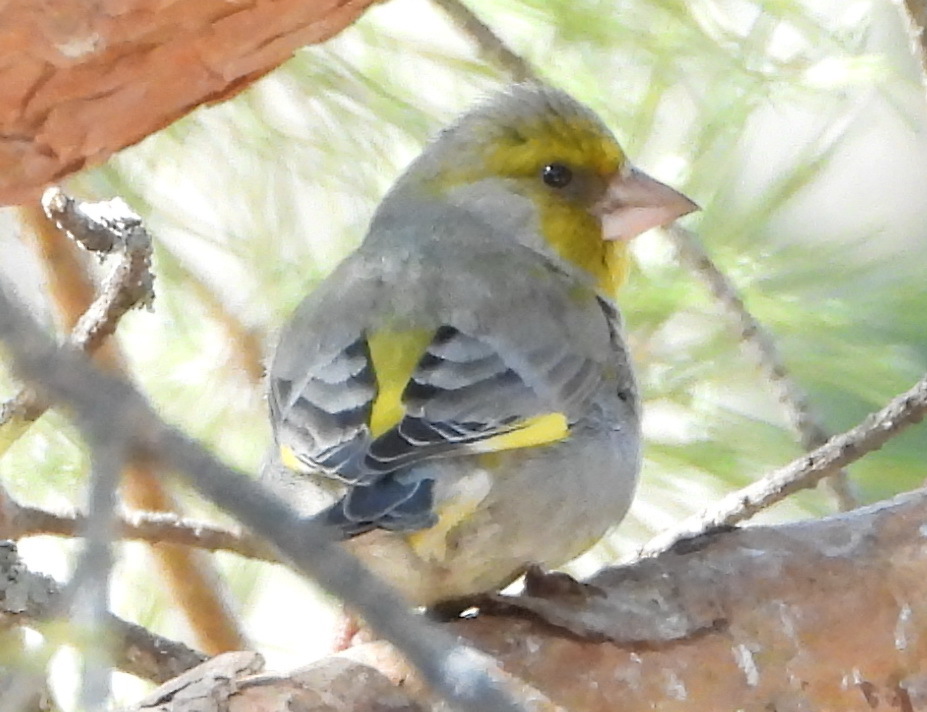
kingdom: Plantae
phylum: Tracheophyta
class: Liliopsida
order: Poales
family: Poaceae
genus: Chloris
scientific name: Chloris chloris
